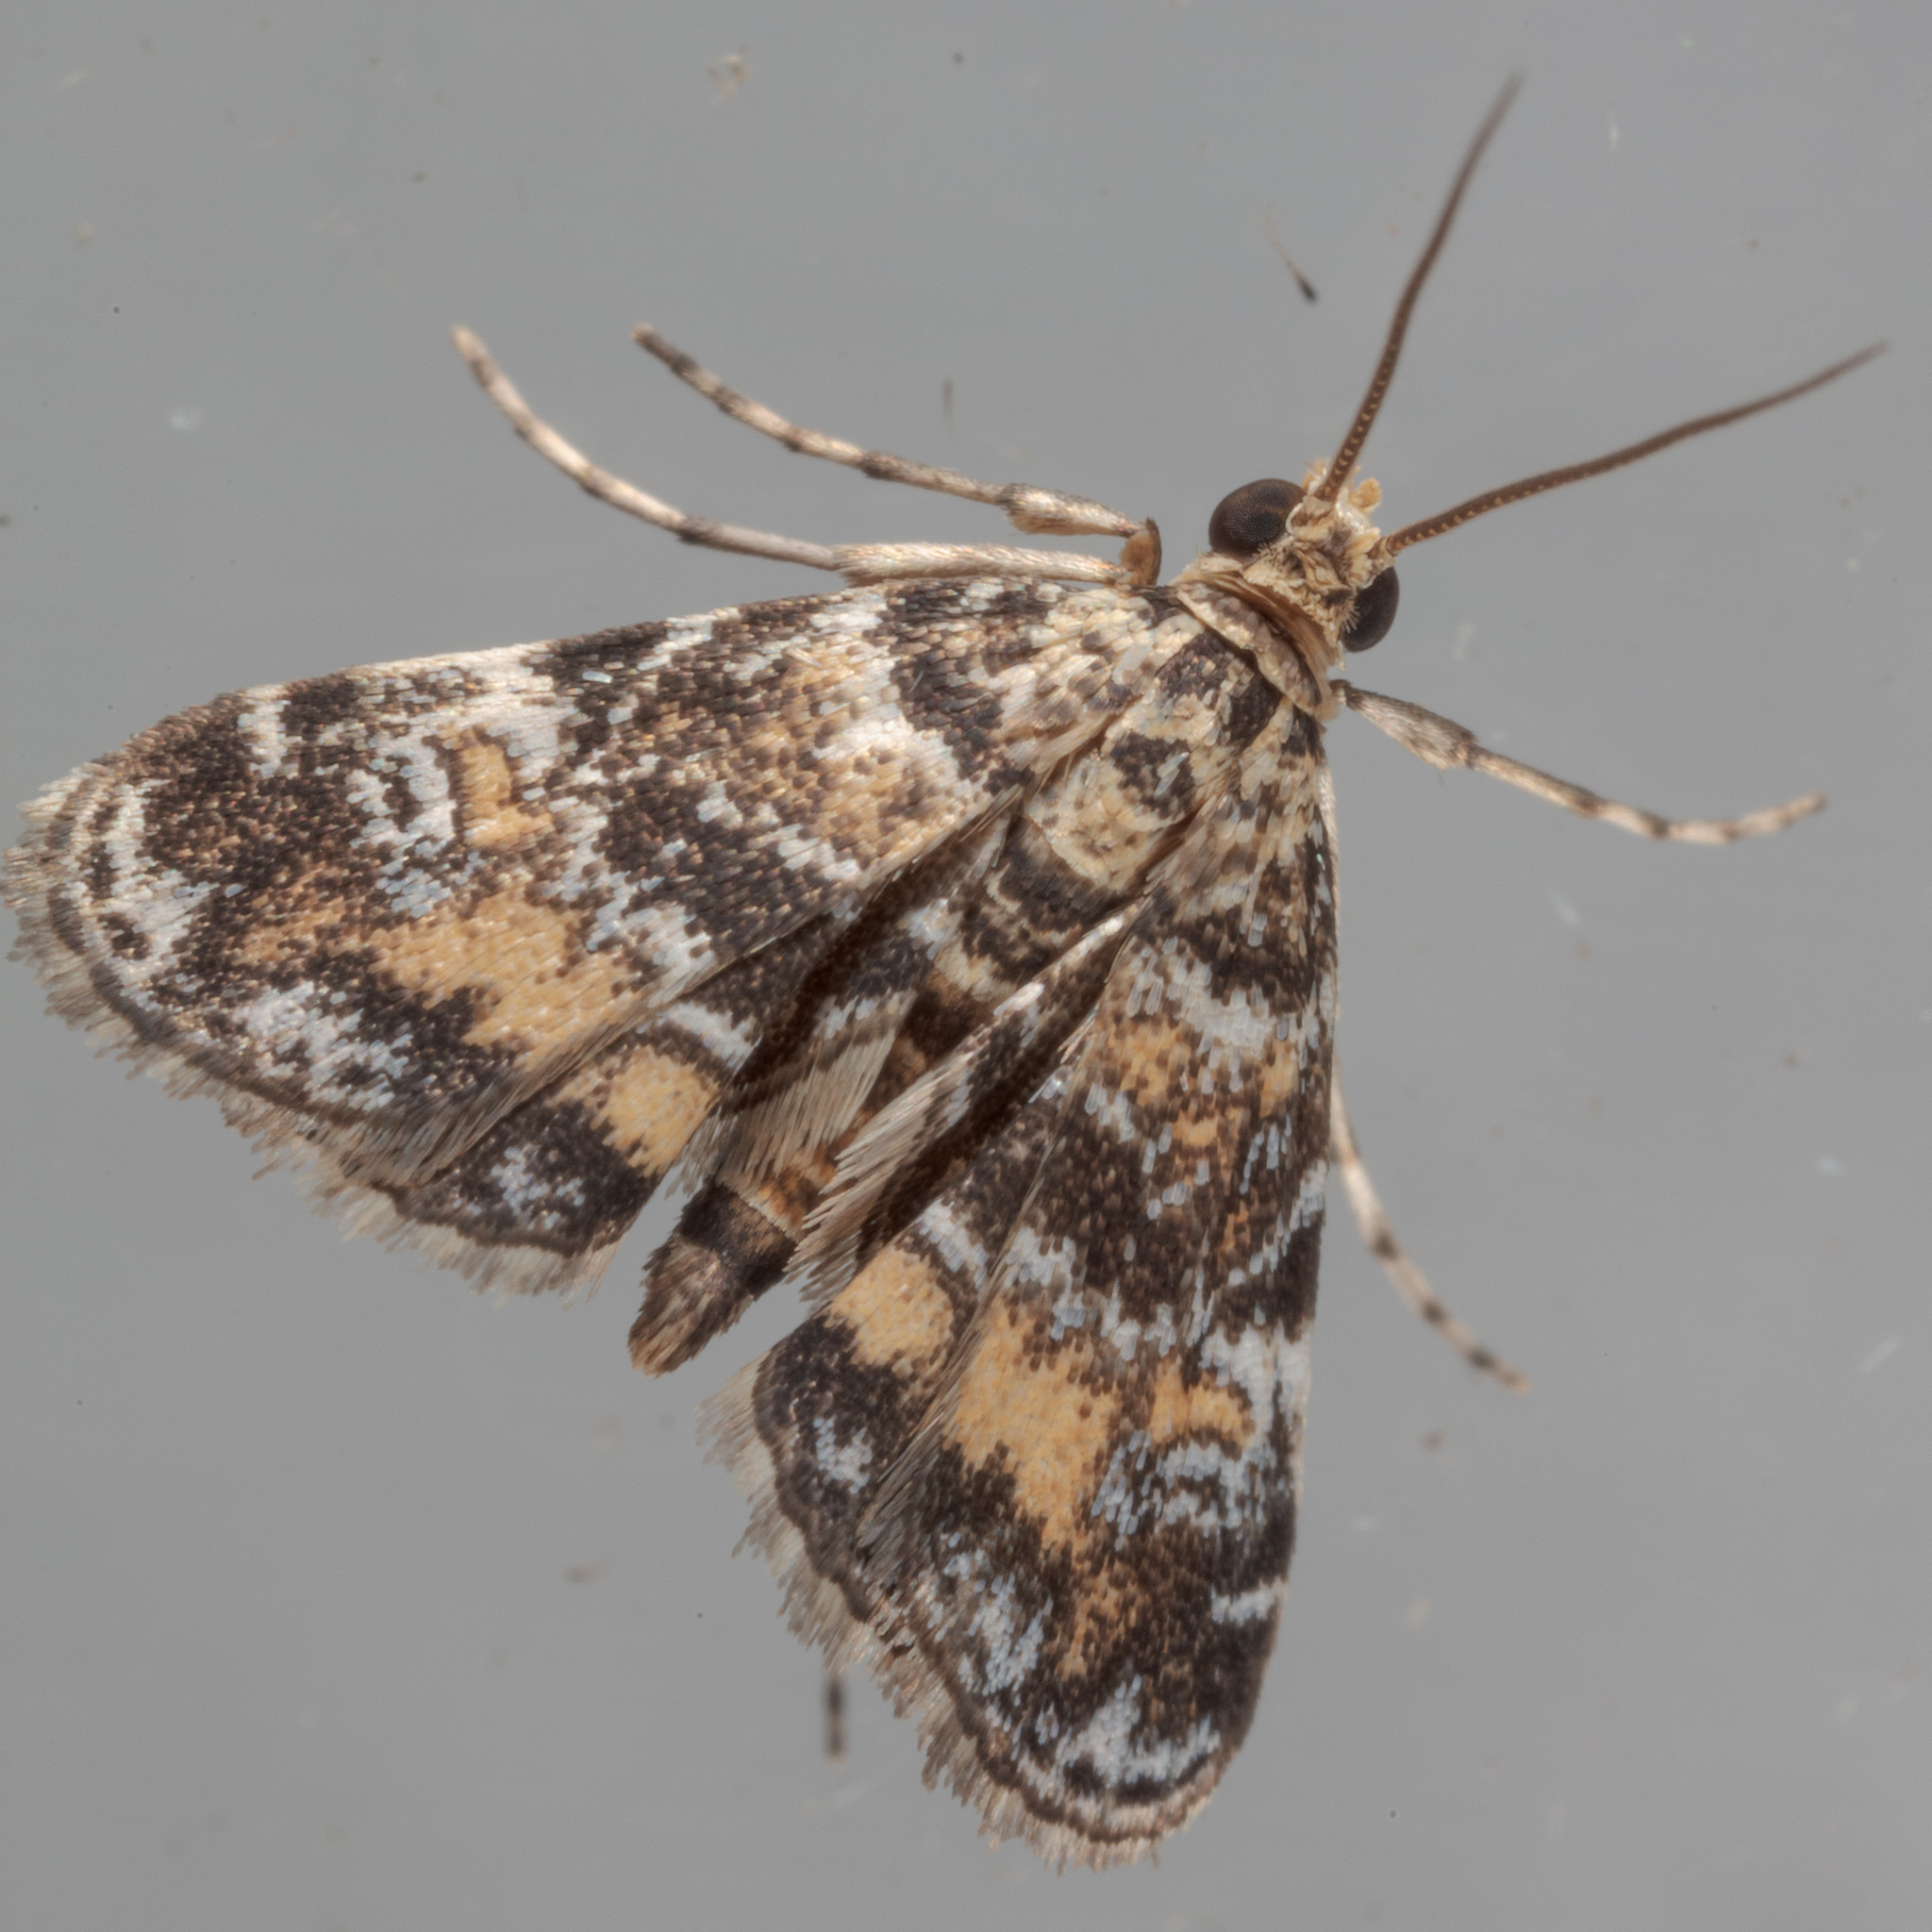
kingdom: Animalia
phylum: Arthropoda
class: Insecta
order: Lepidoptera
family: Crambidae
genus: Elophila
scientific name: Elophila obliteralis
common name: Waterlily leafcutter moth
